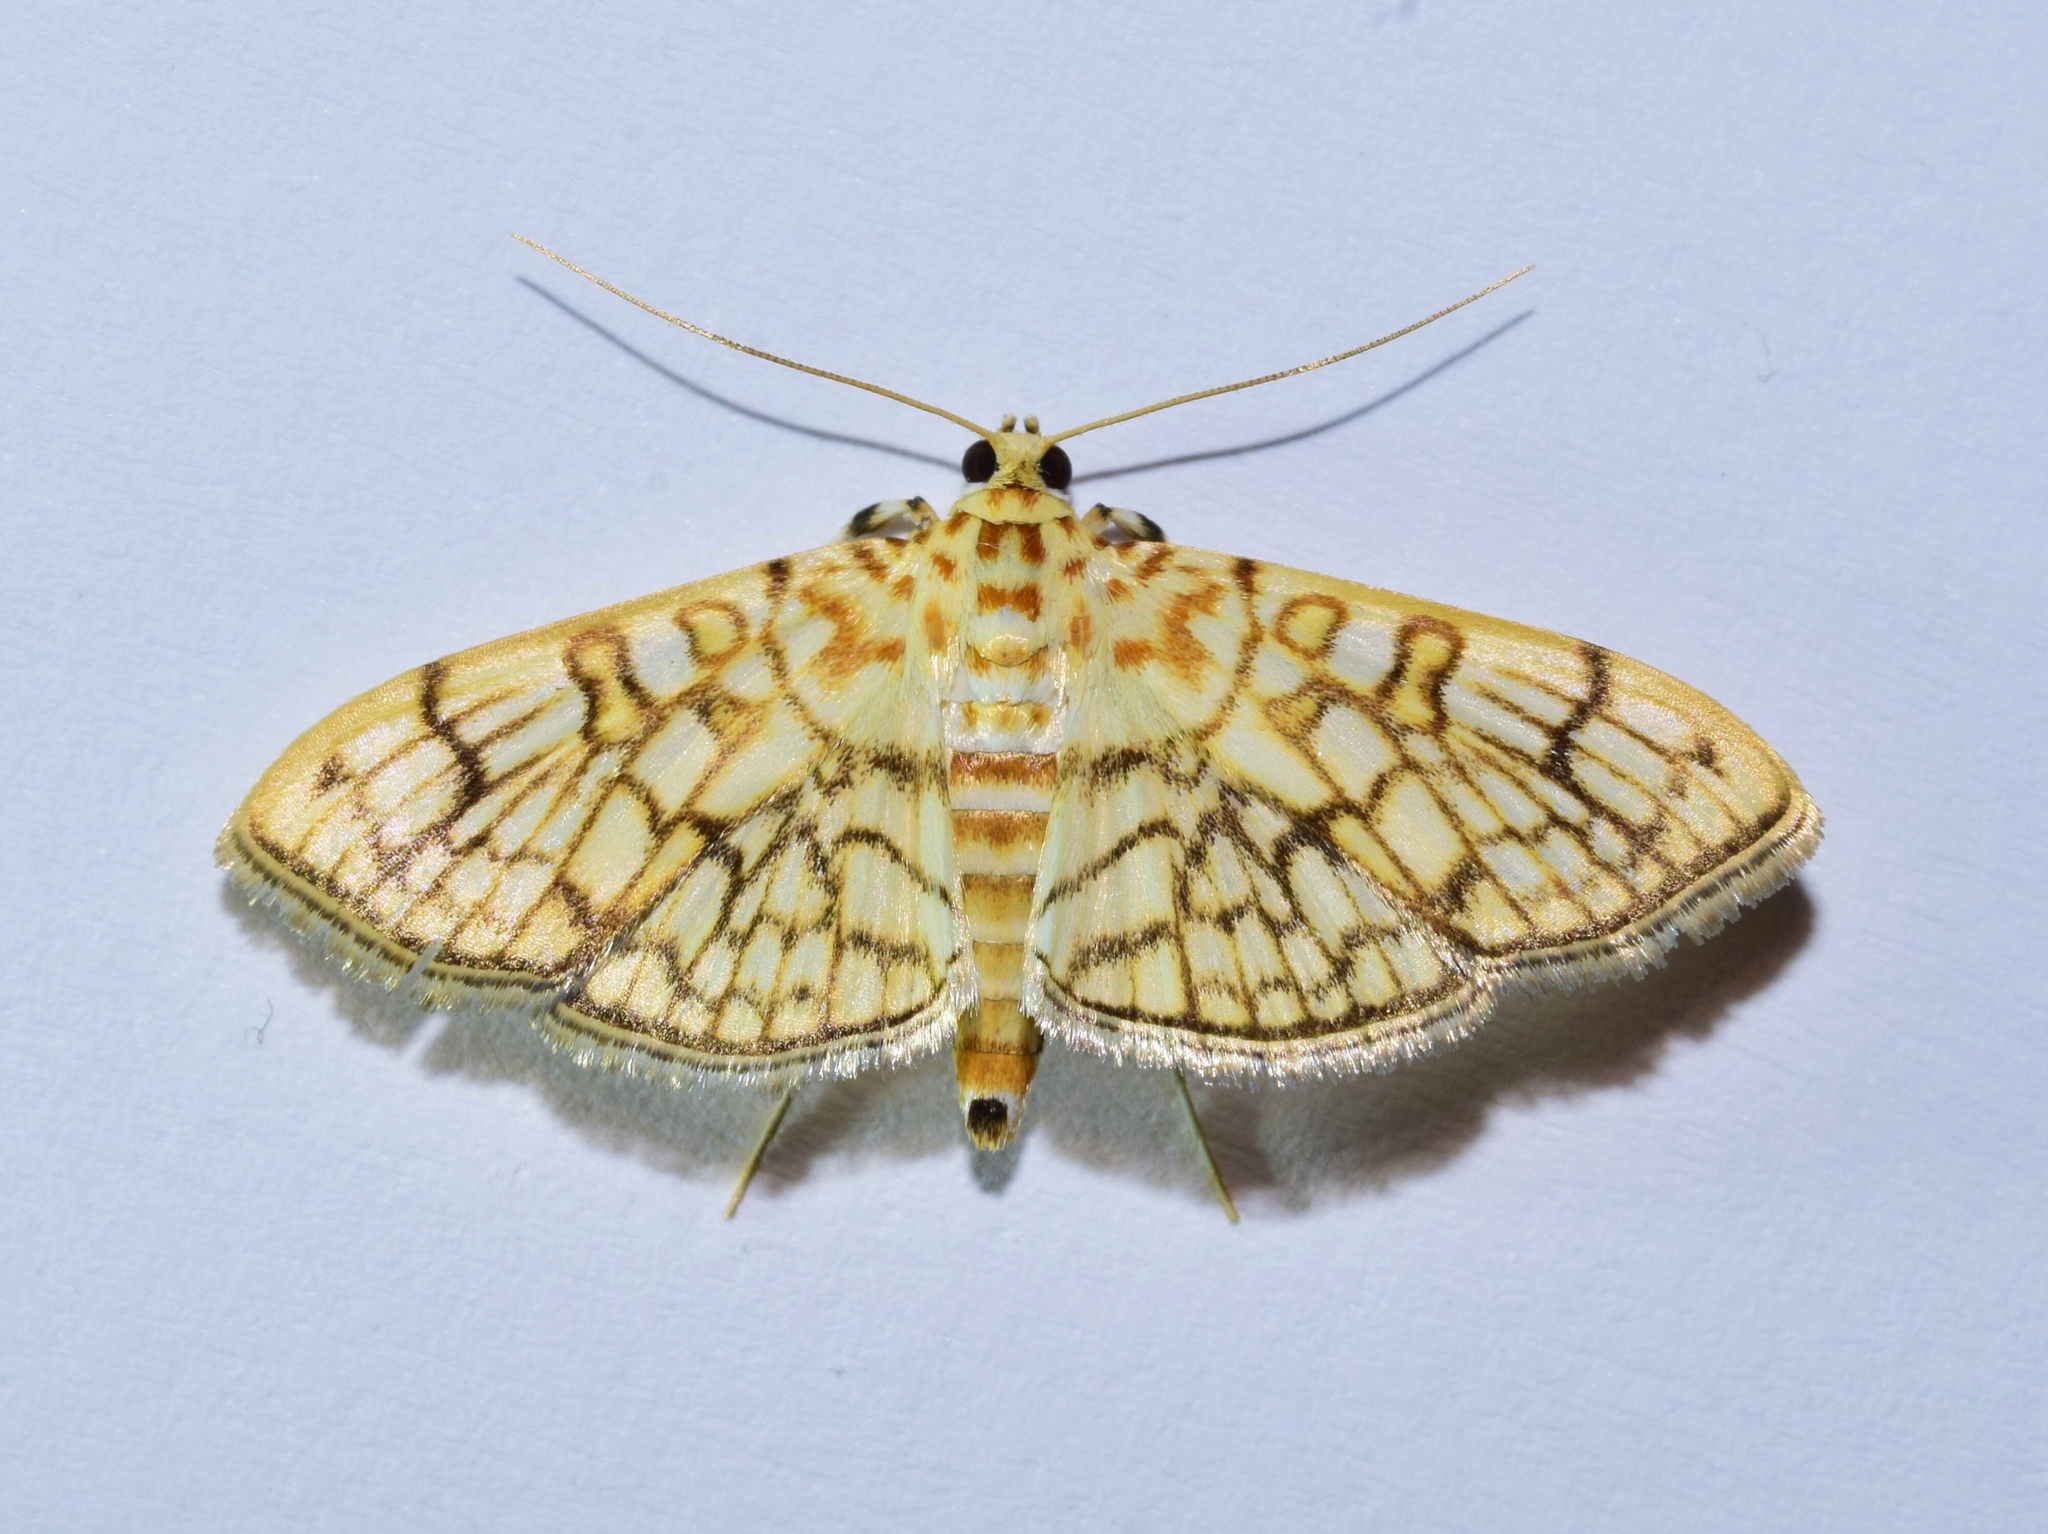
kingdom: Animalia
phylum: Arthropoda
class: Insecta
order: Lepidoptera
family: Crambidae
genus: Syllepte
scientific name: Syllepte polycymalis
